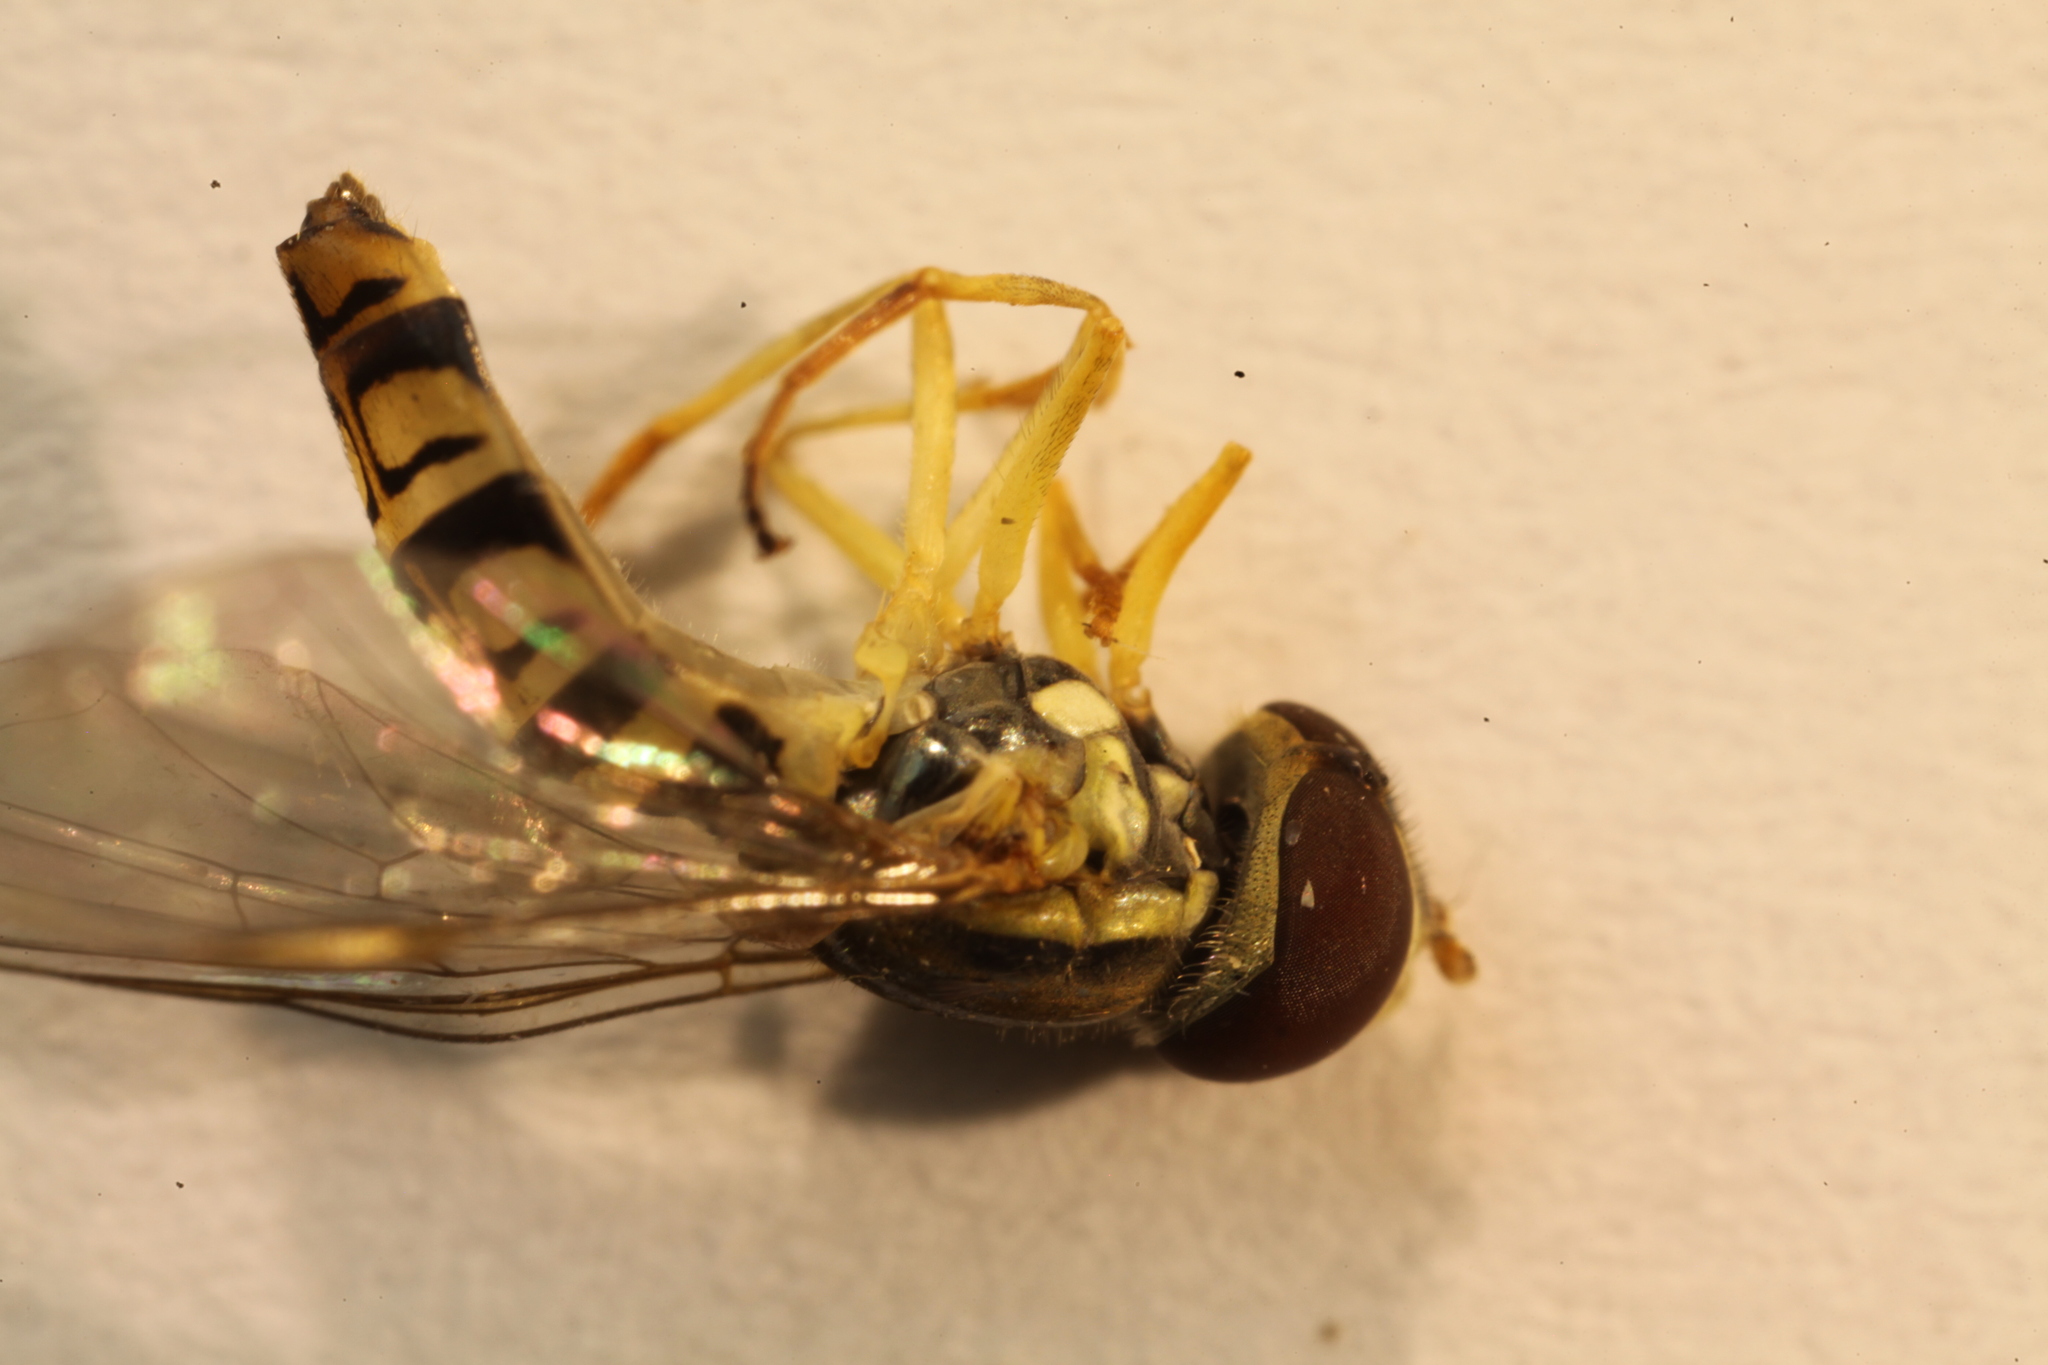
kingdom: Animalia
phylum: Arthropoda
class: Insecta
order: Diptera
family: Syrphidae
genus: Toxomerus
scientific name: Toxomerus politus
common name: Maize calligrapher
